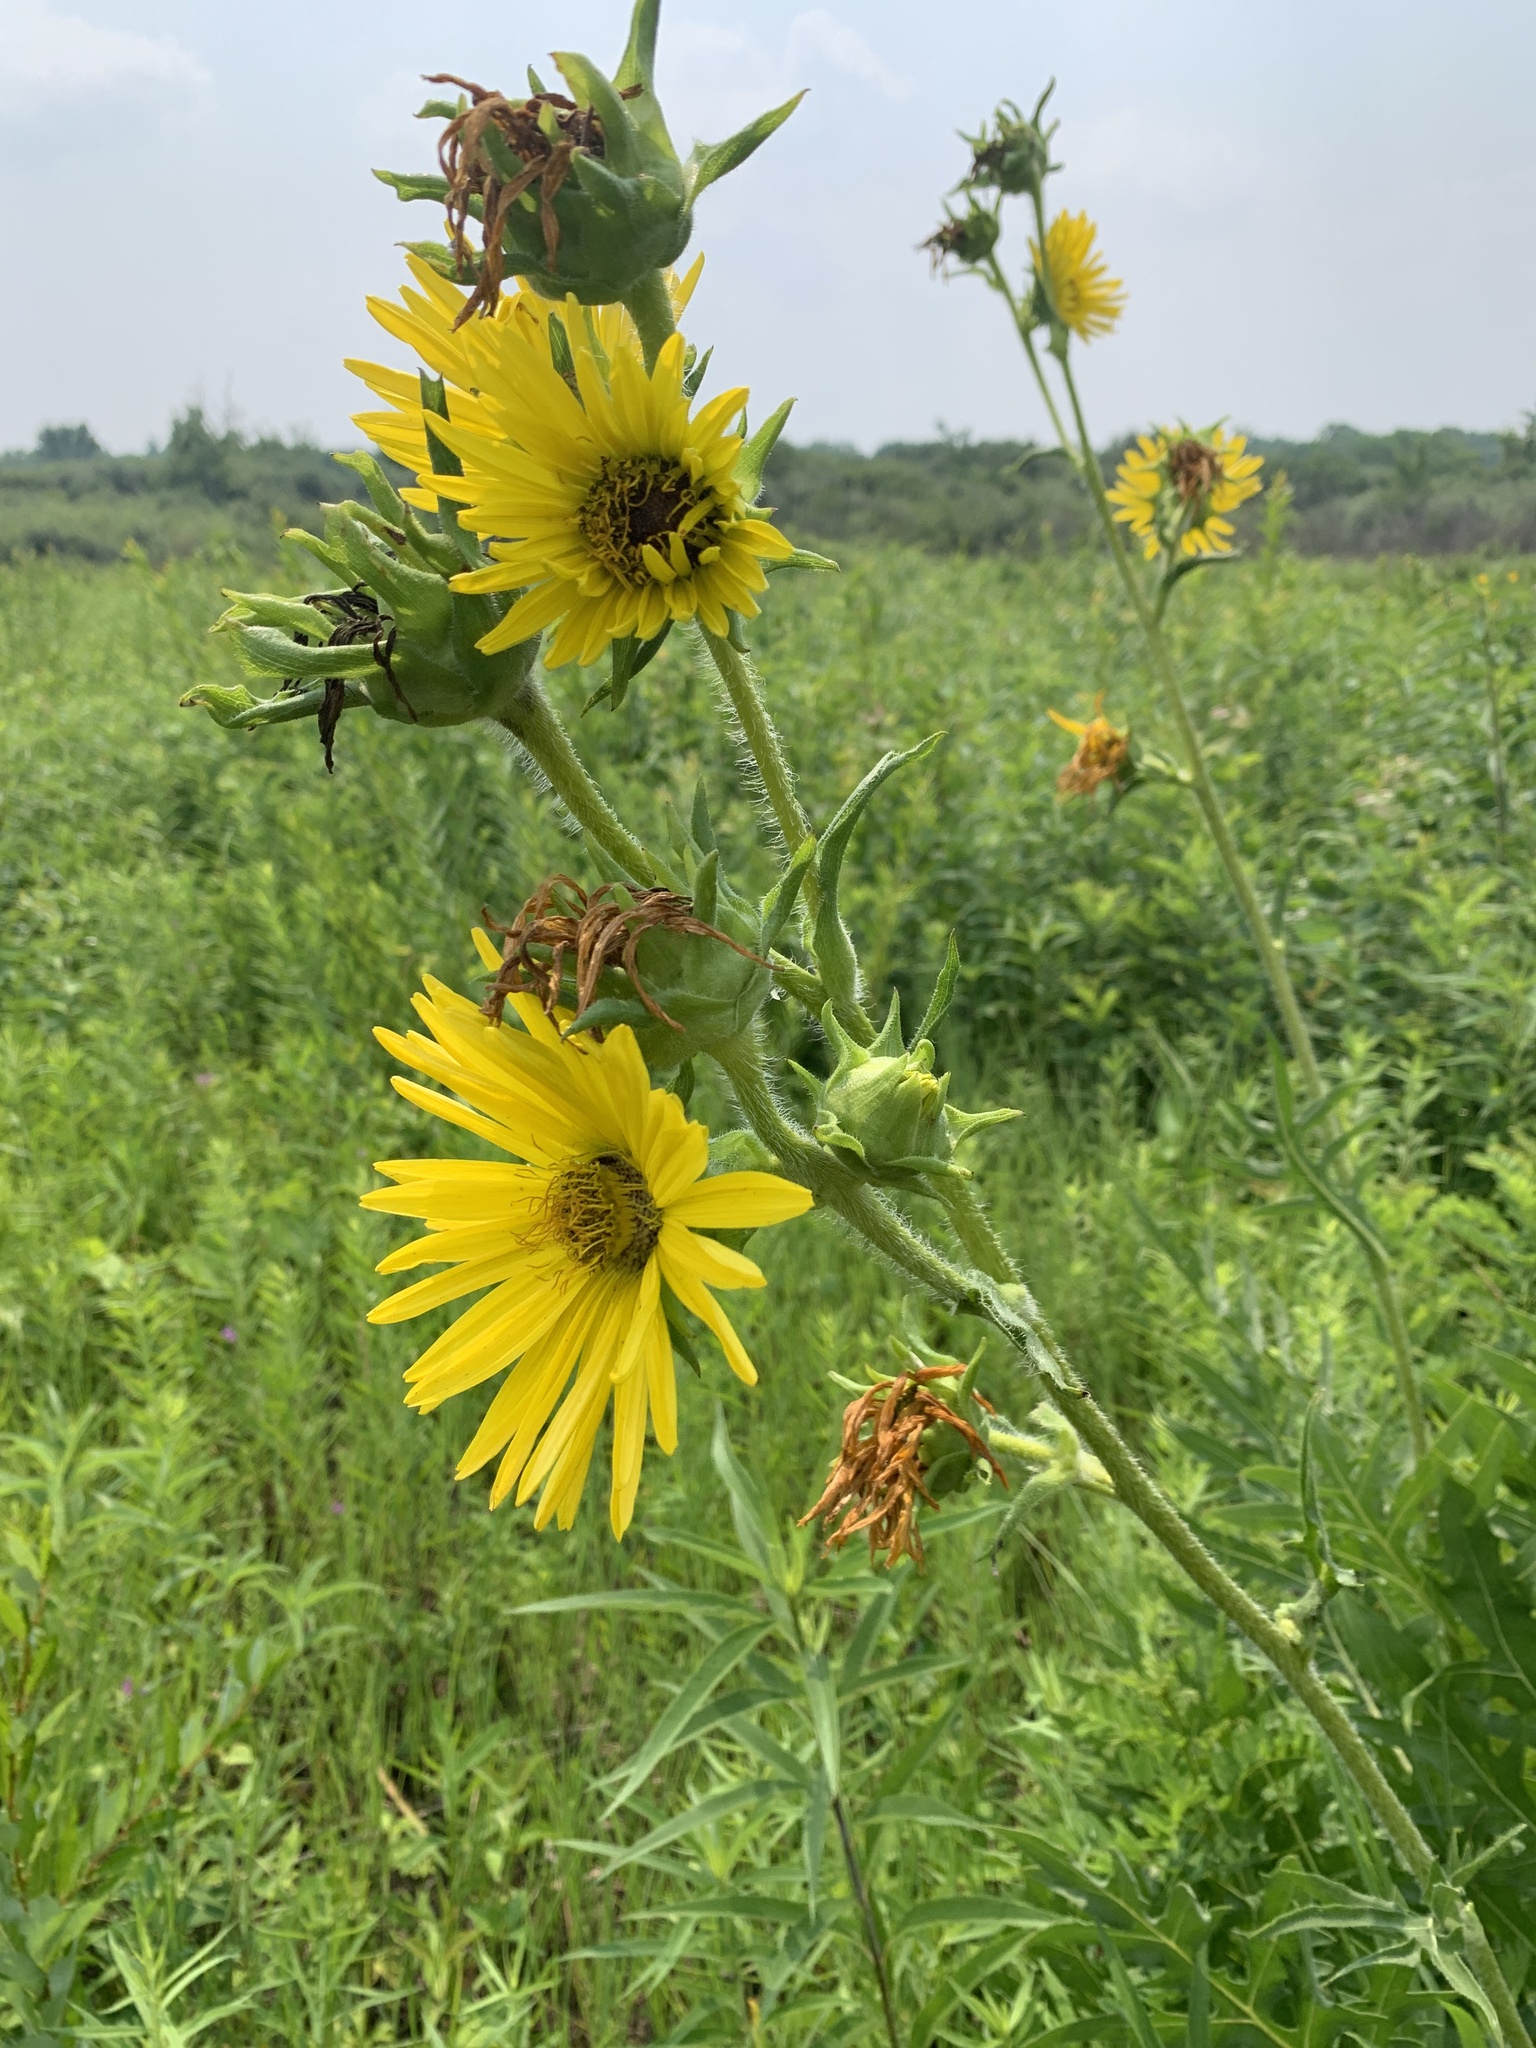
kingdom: Plantae
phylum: Tracheophyta
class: Magnoliopsida
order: Asterales
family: Asteraceae
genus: Silphium
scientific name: Silphium laciniatum
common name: Polarplant
